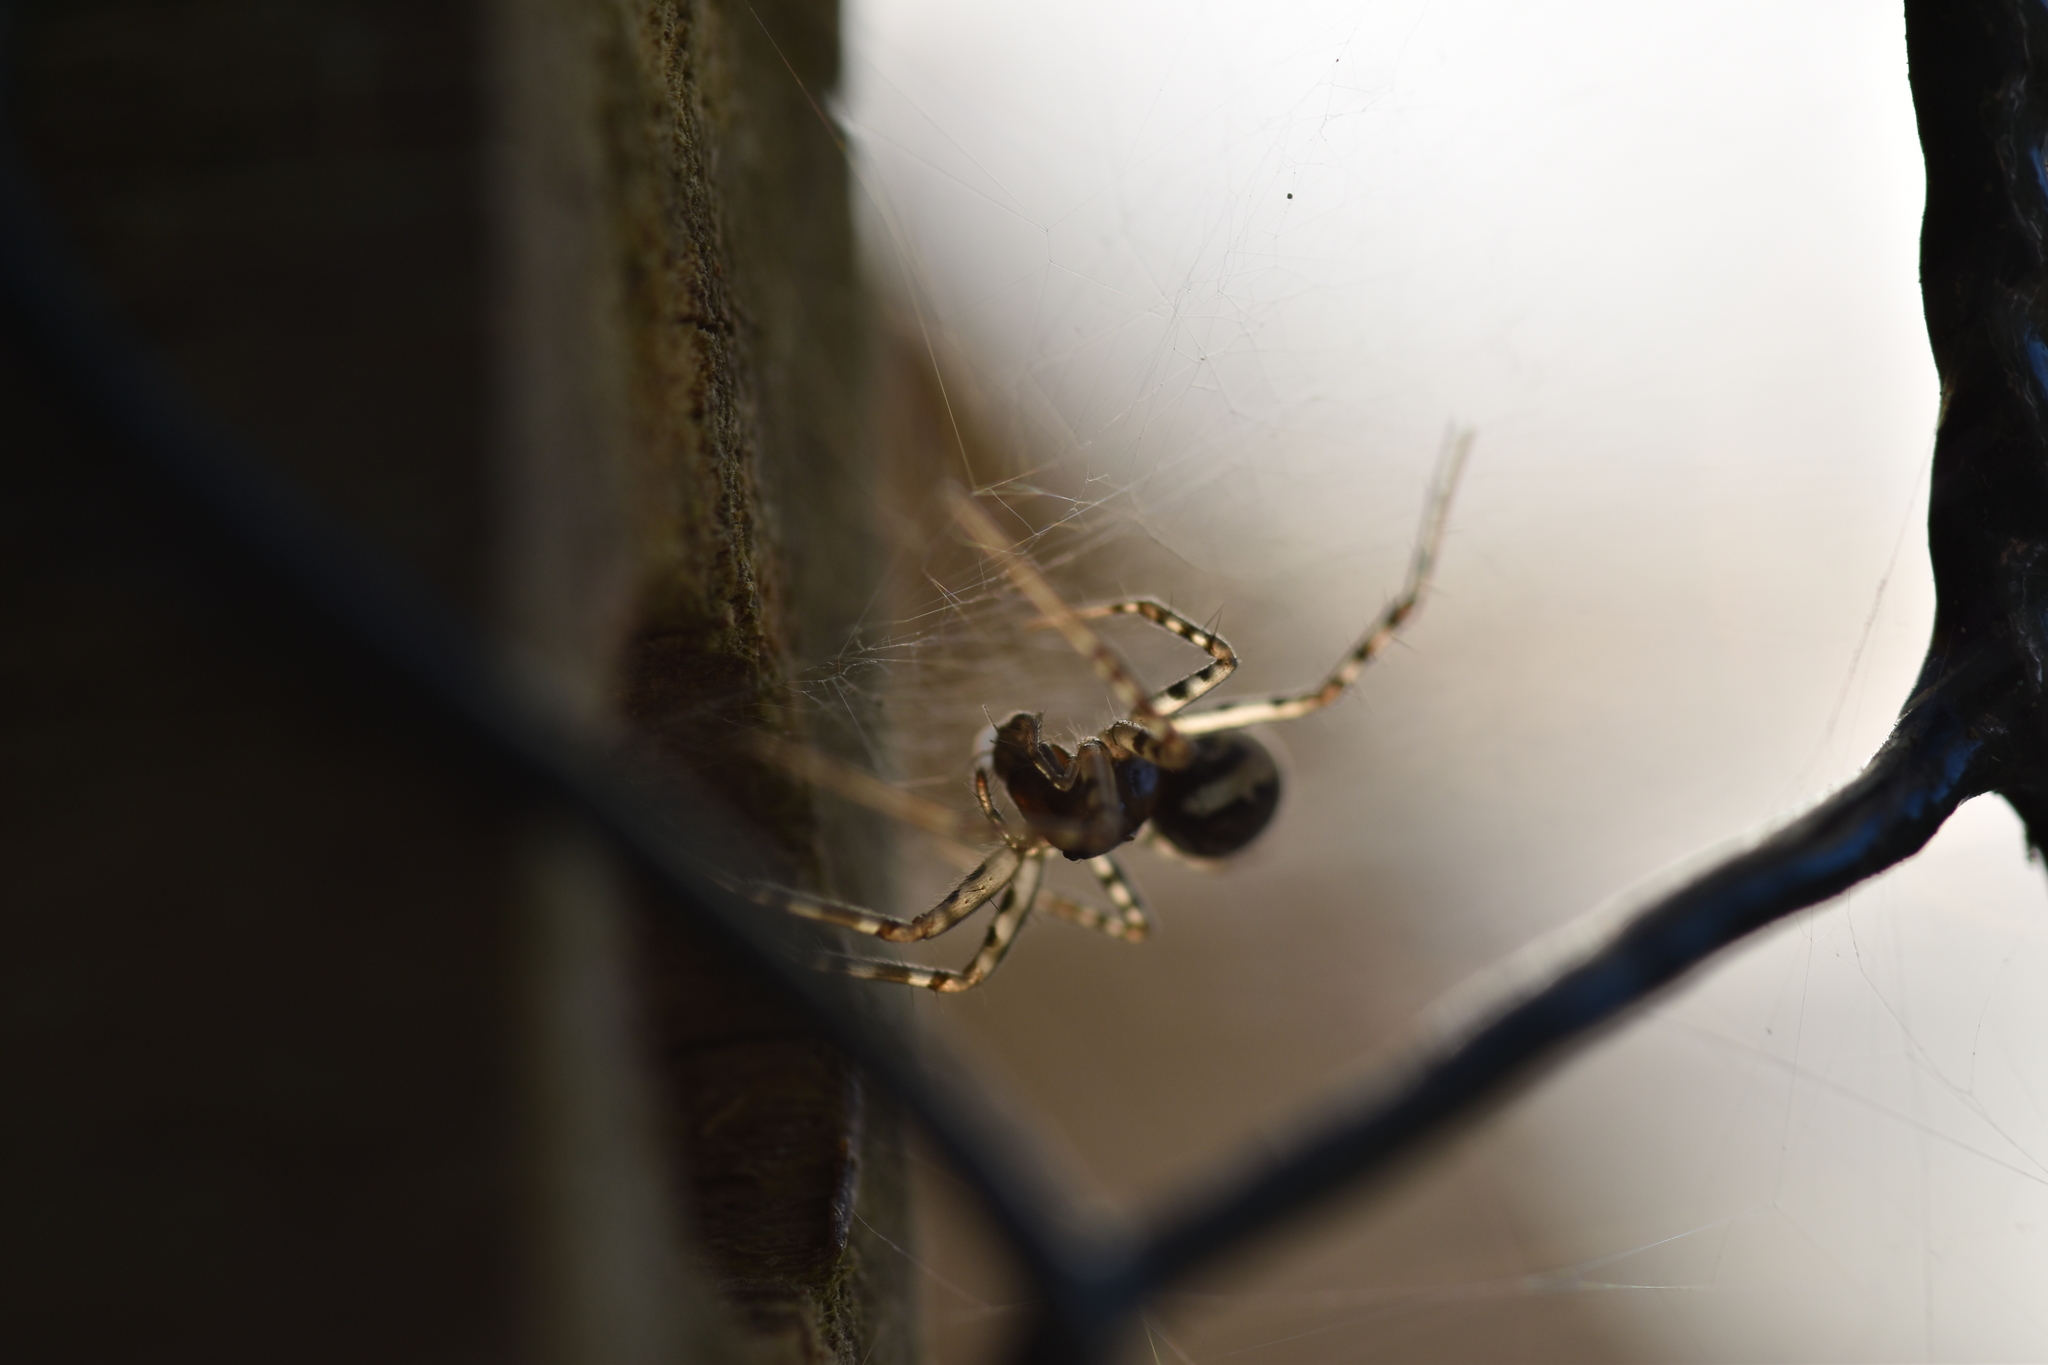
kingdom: Animalia
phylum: Arthropoda
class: Arachnida
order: Araneae
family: Linyphiidae
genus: Neriene
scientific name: Neriene montana
